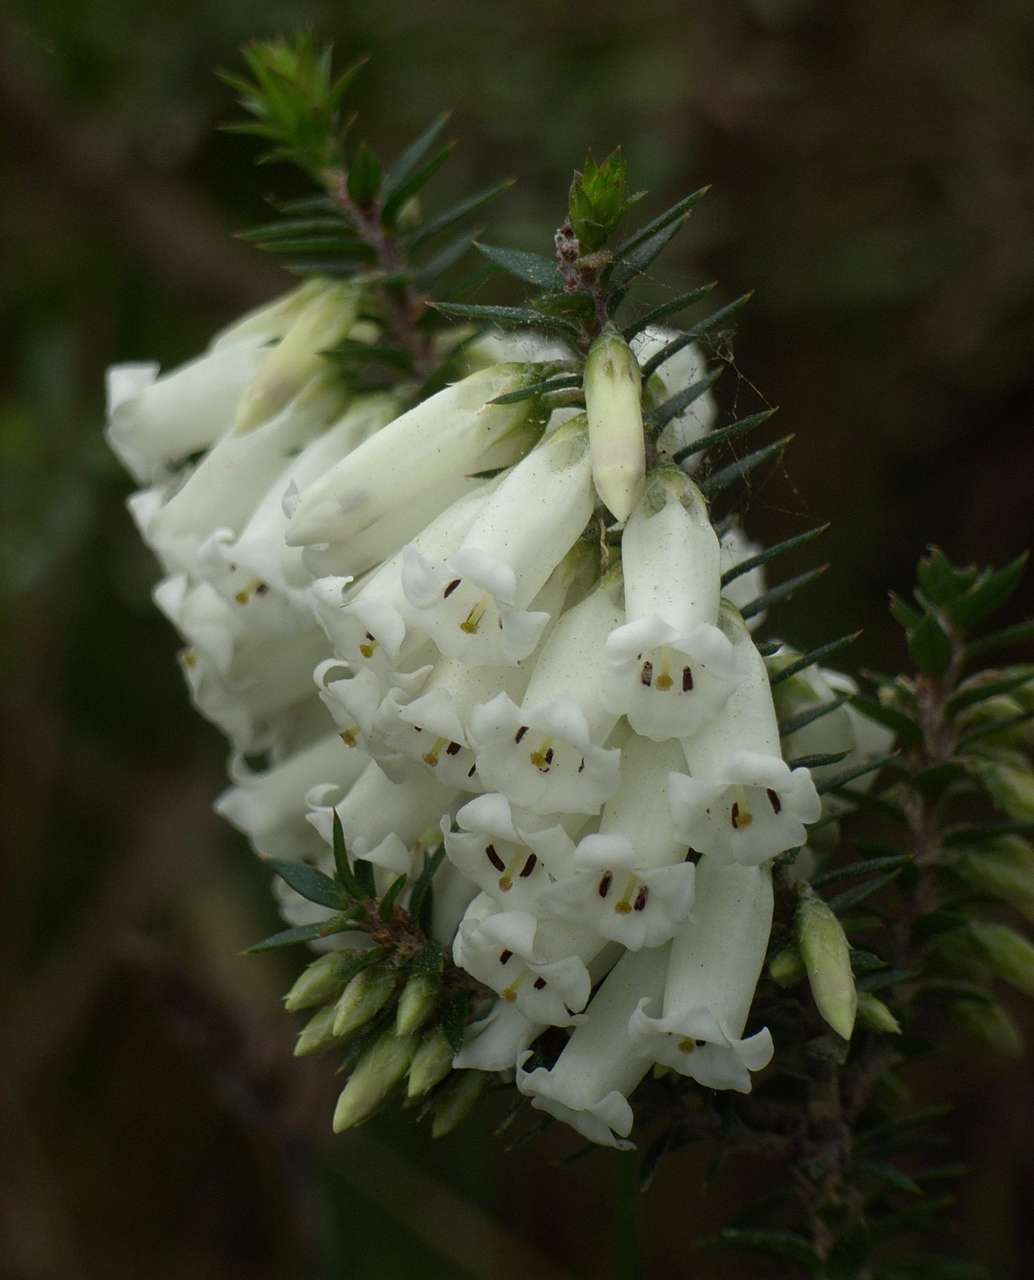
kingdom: Plantae
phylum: Tracheophyta
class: Magnoliopsida
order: Ericales
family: Ericaceae
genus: Epacris
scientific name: Epacris impressa
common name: Common-heath
